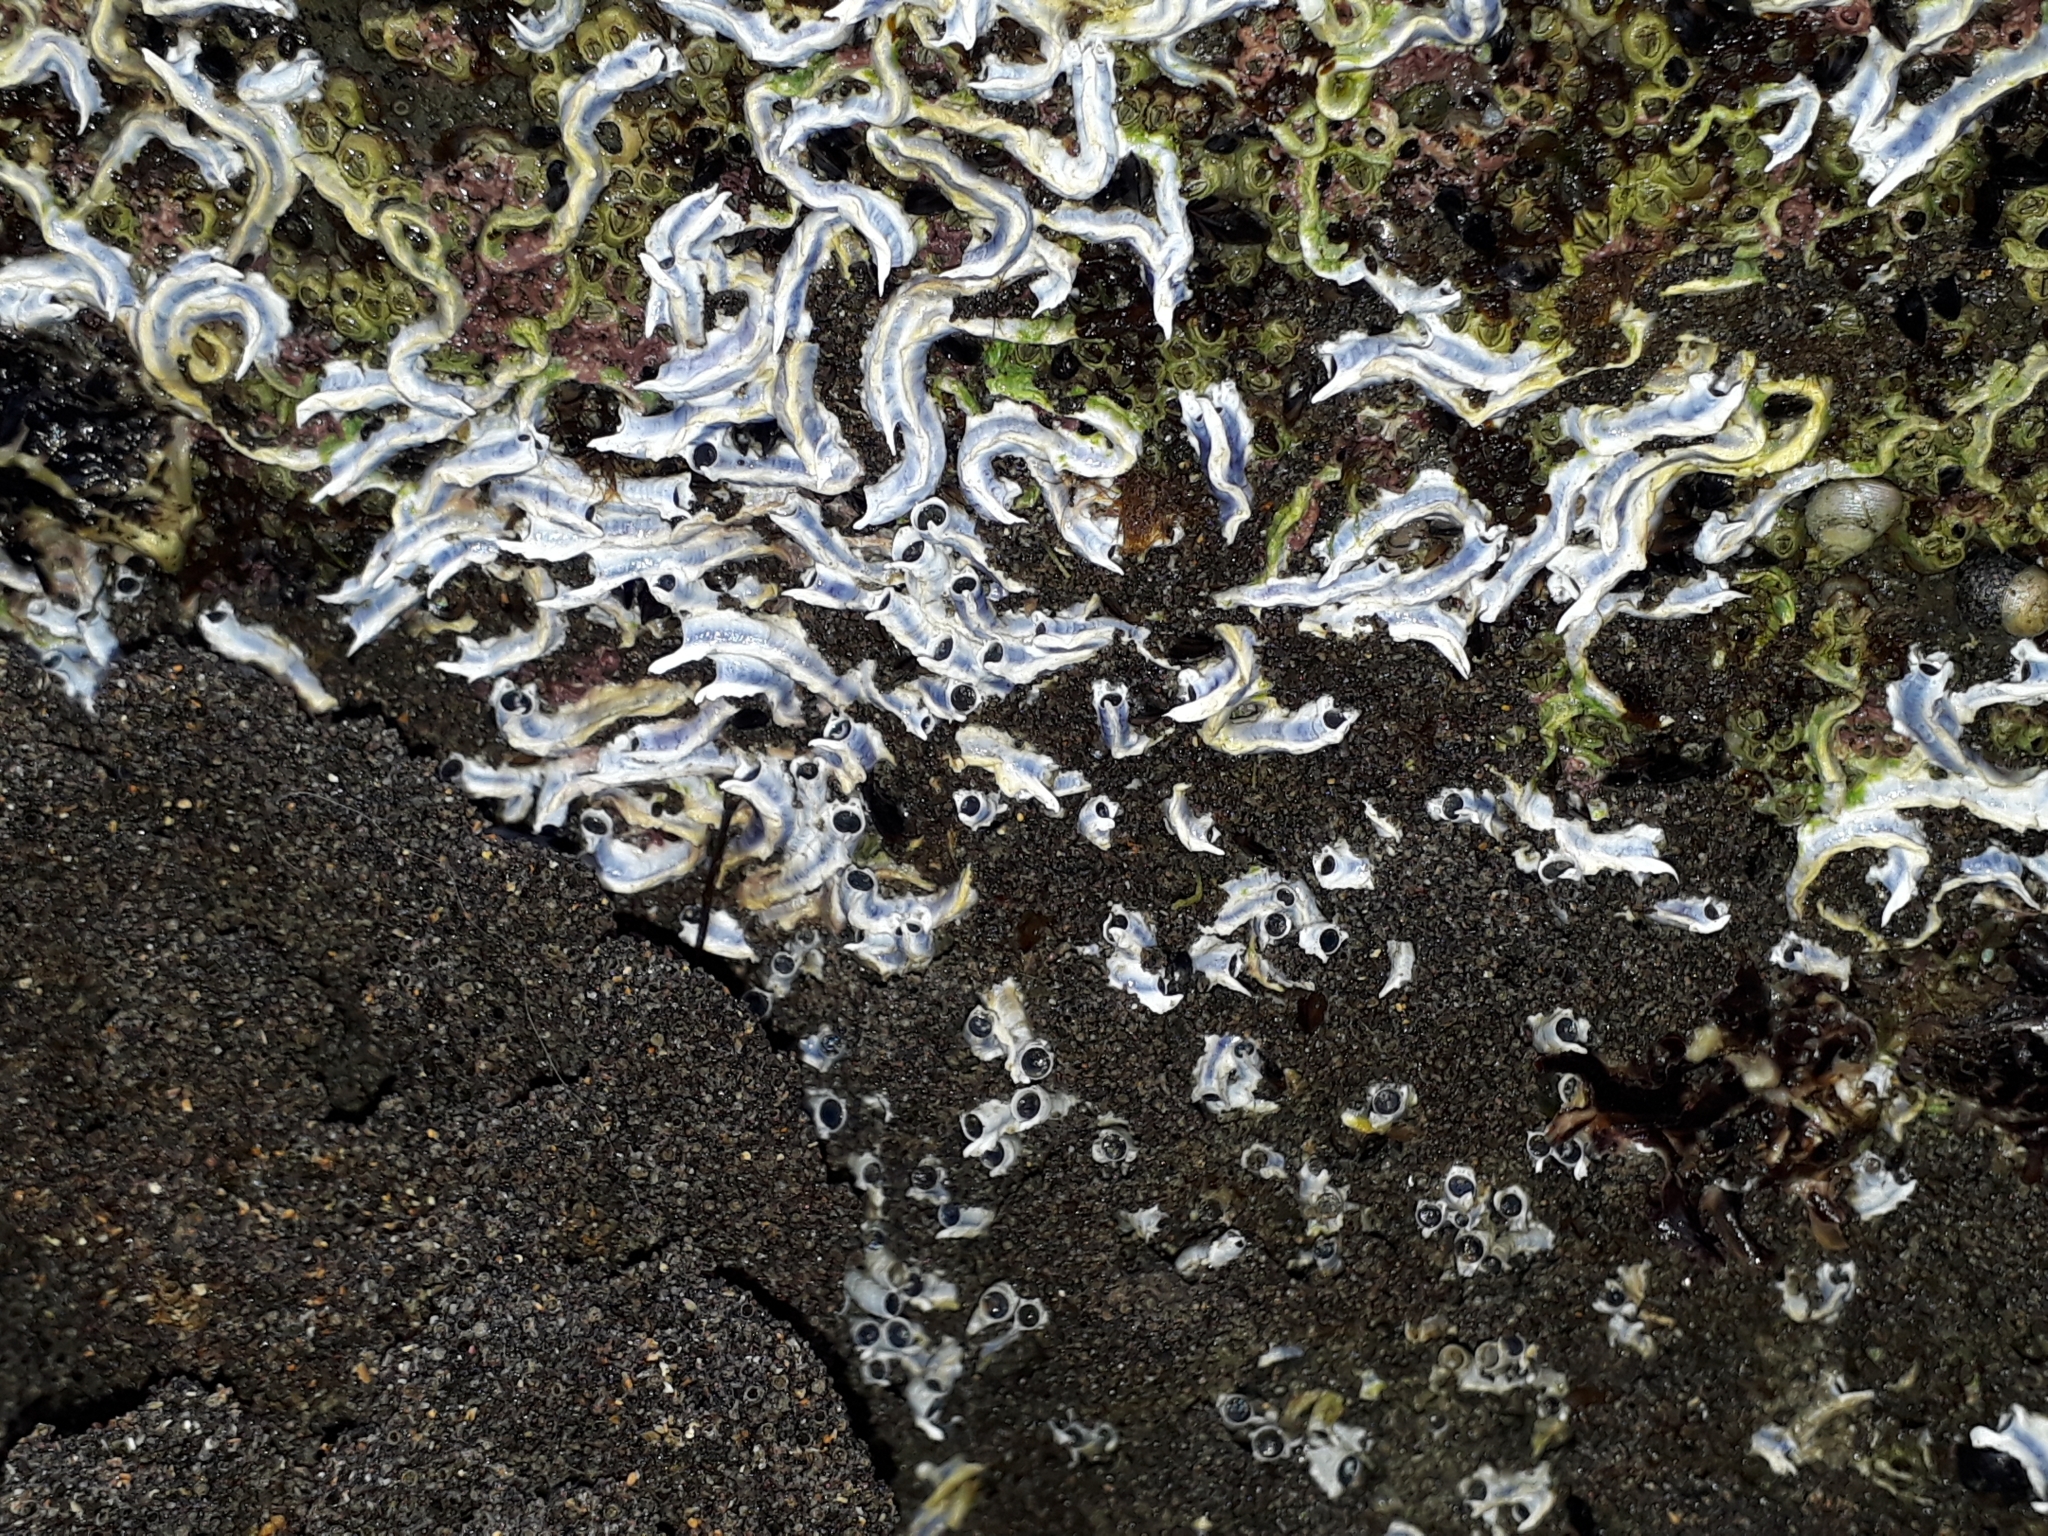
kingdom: Animalia
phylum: Annelida
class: Polychaeta
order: Sabellida
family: Serpulidae
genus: Spirobranchus
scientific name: Spirobranchus cariniferus
